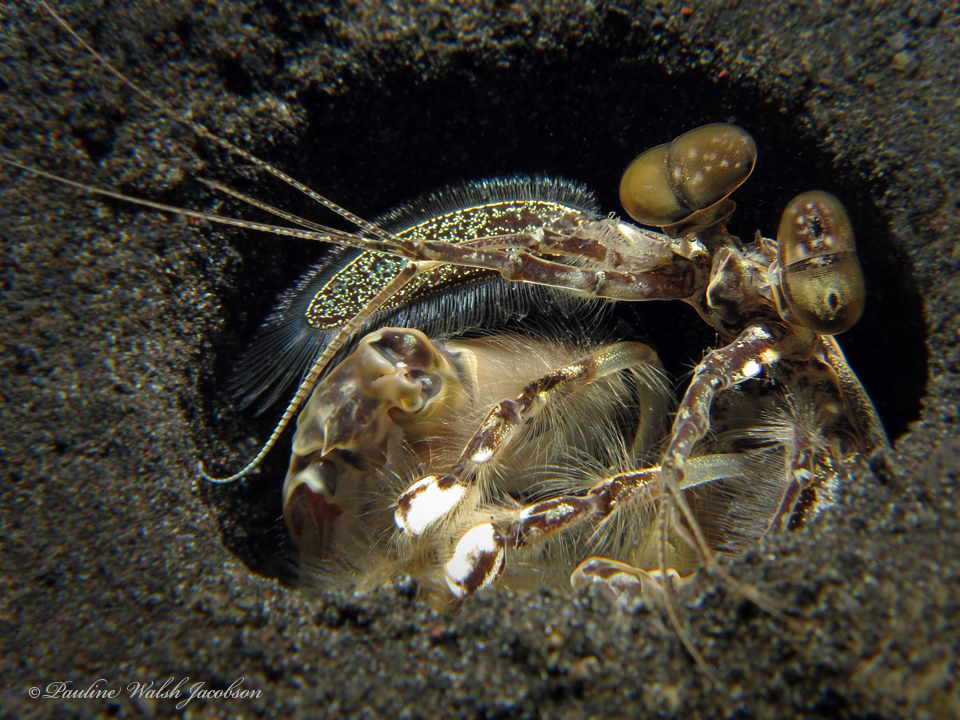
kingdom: Animalia
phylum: Arthropoda
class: Malacostraca
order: Stomatopoda
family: Lysiosquillidae
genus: Lysiosquilla
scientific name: Lysiosquilla maculata
